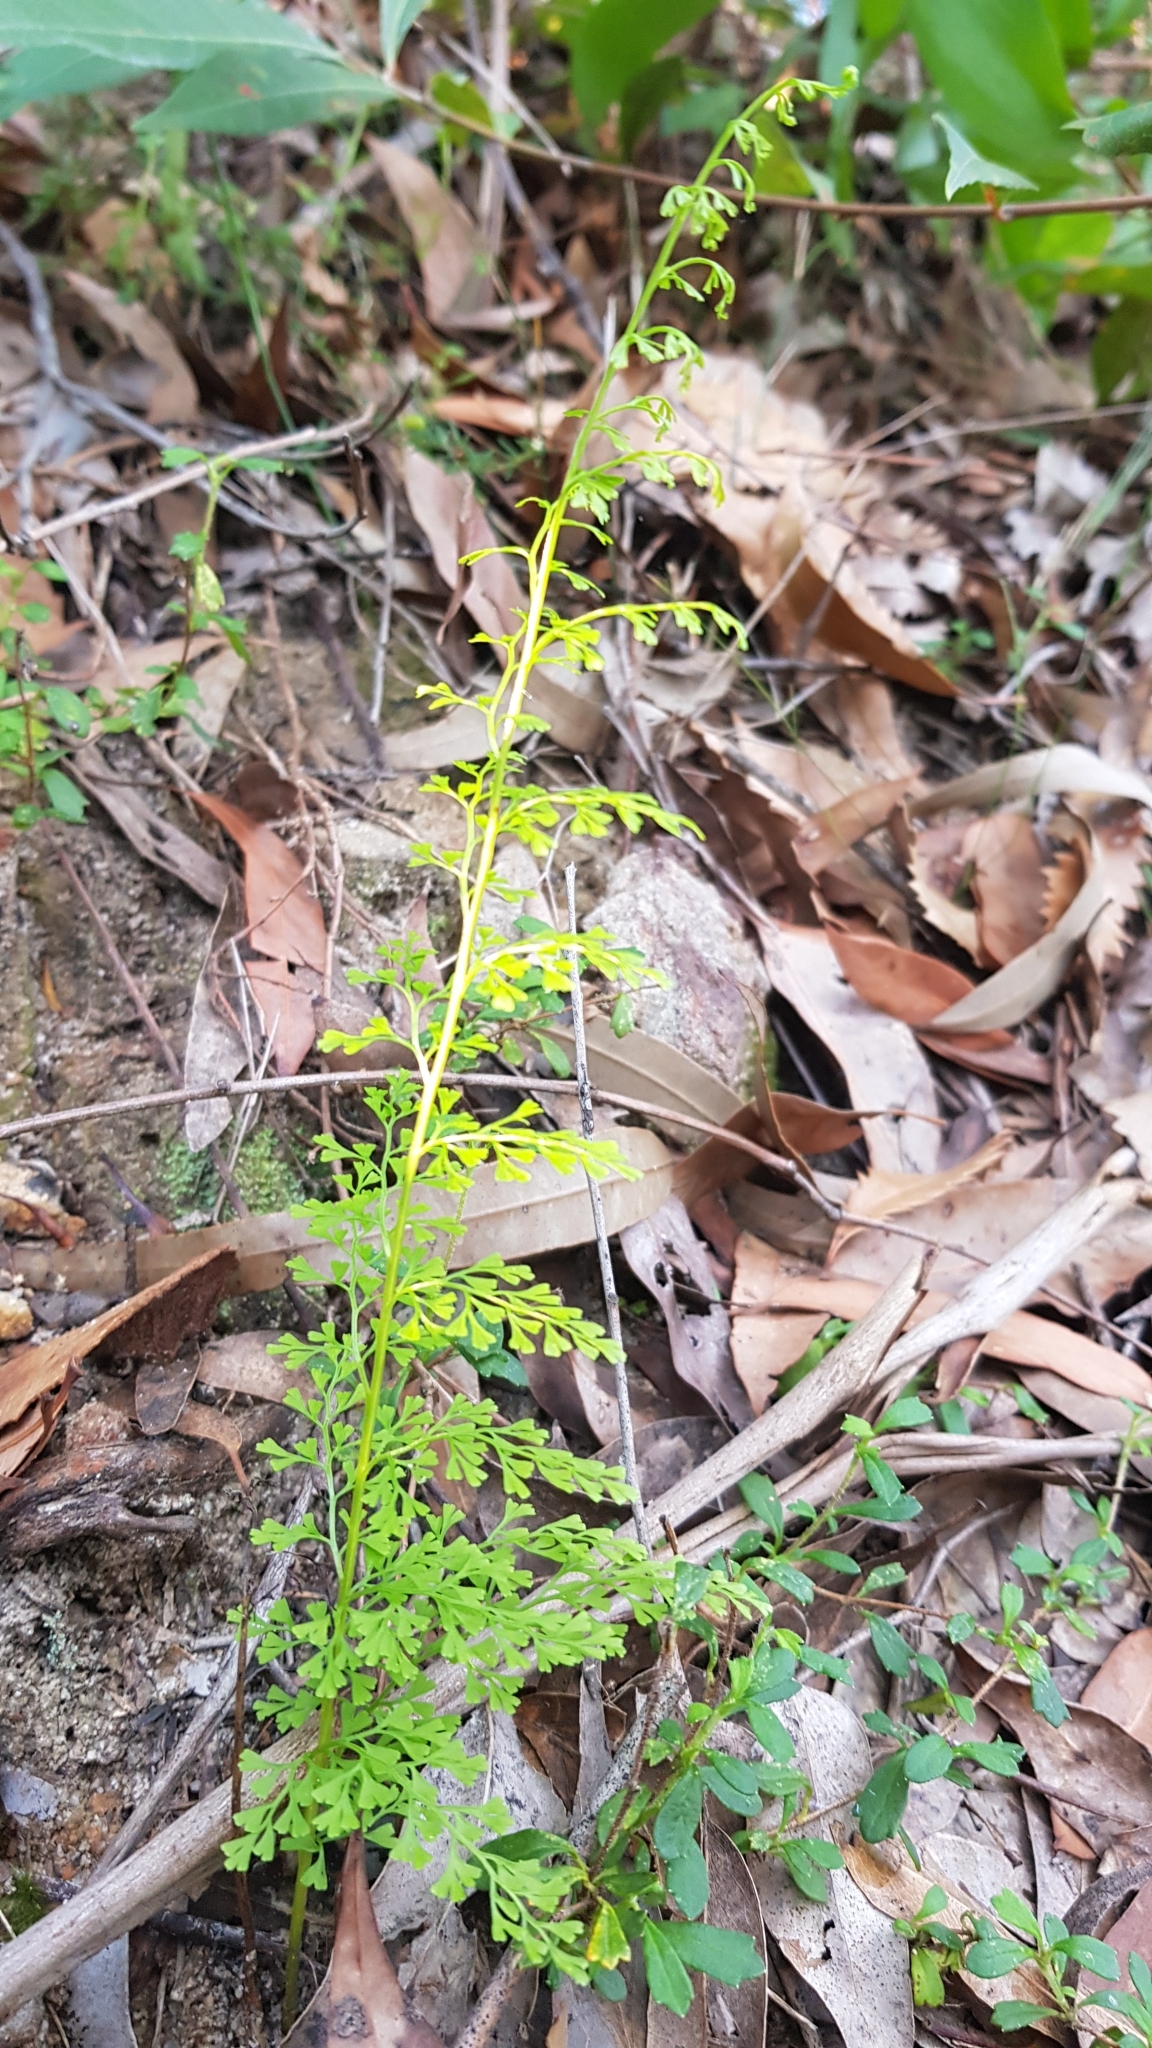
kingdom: Plantae
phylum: Tracheophyta
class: Polypodiopsida
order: Polypodiales
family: Lindsaeaceae
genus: Lindsaea
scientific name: Lindsaea microphylla
